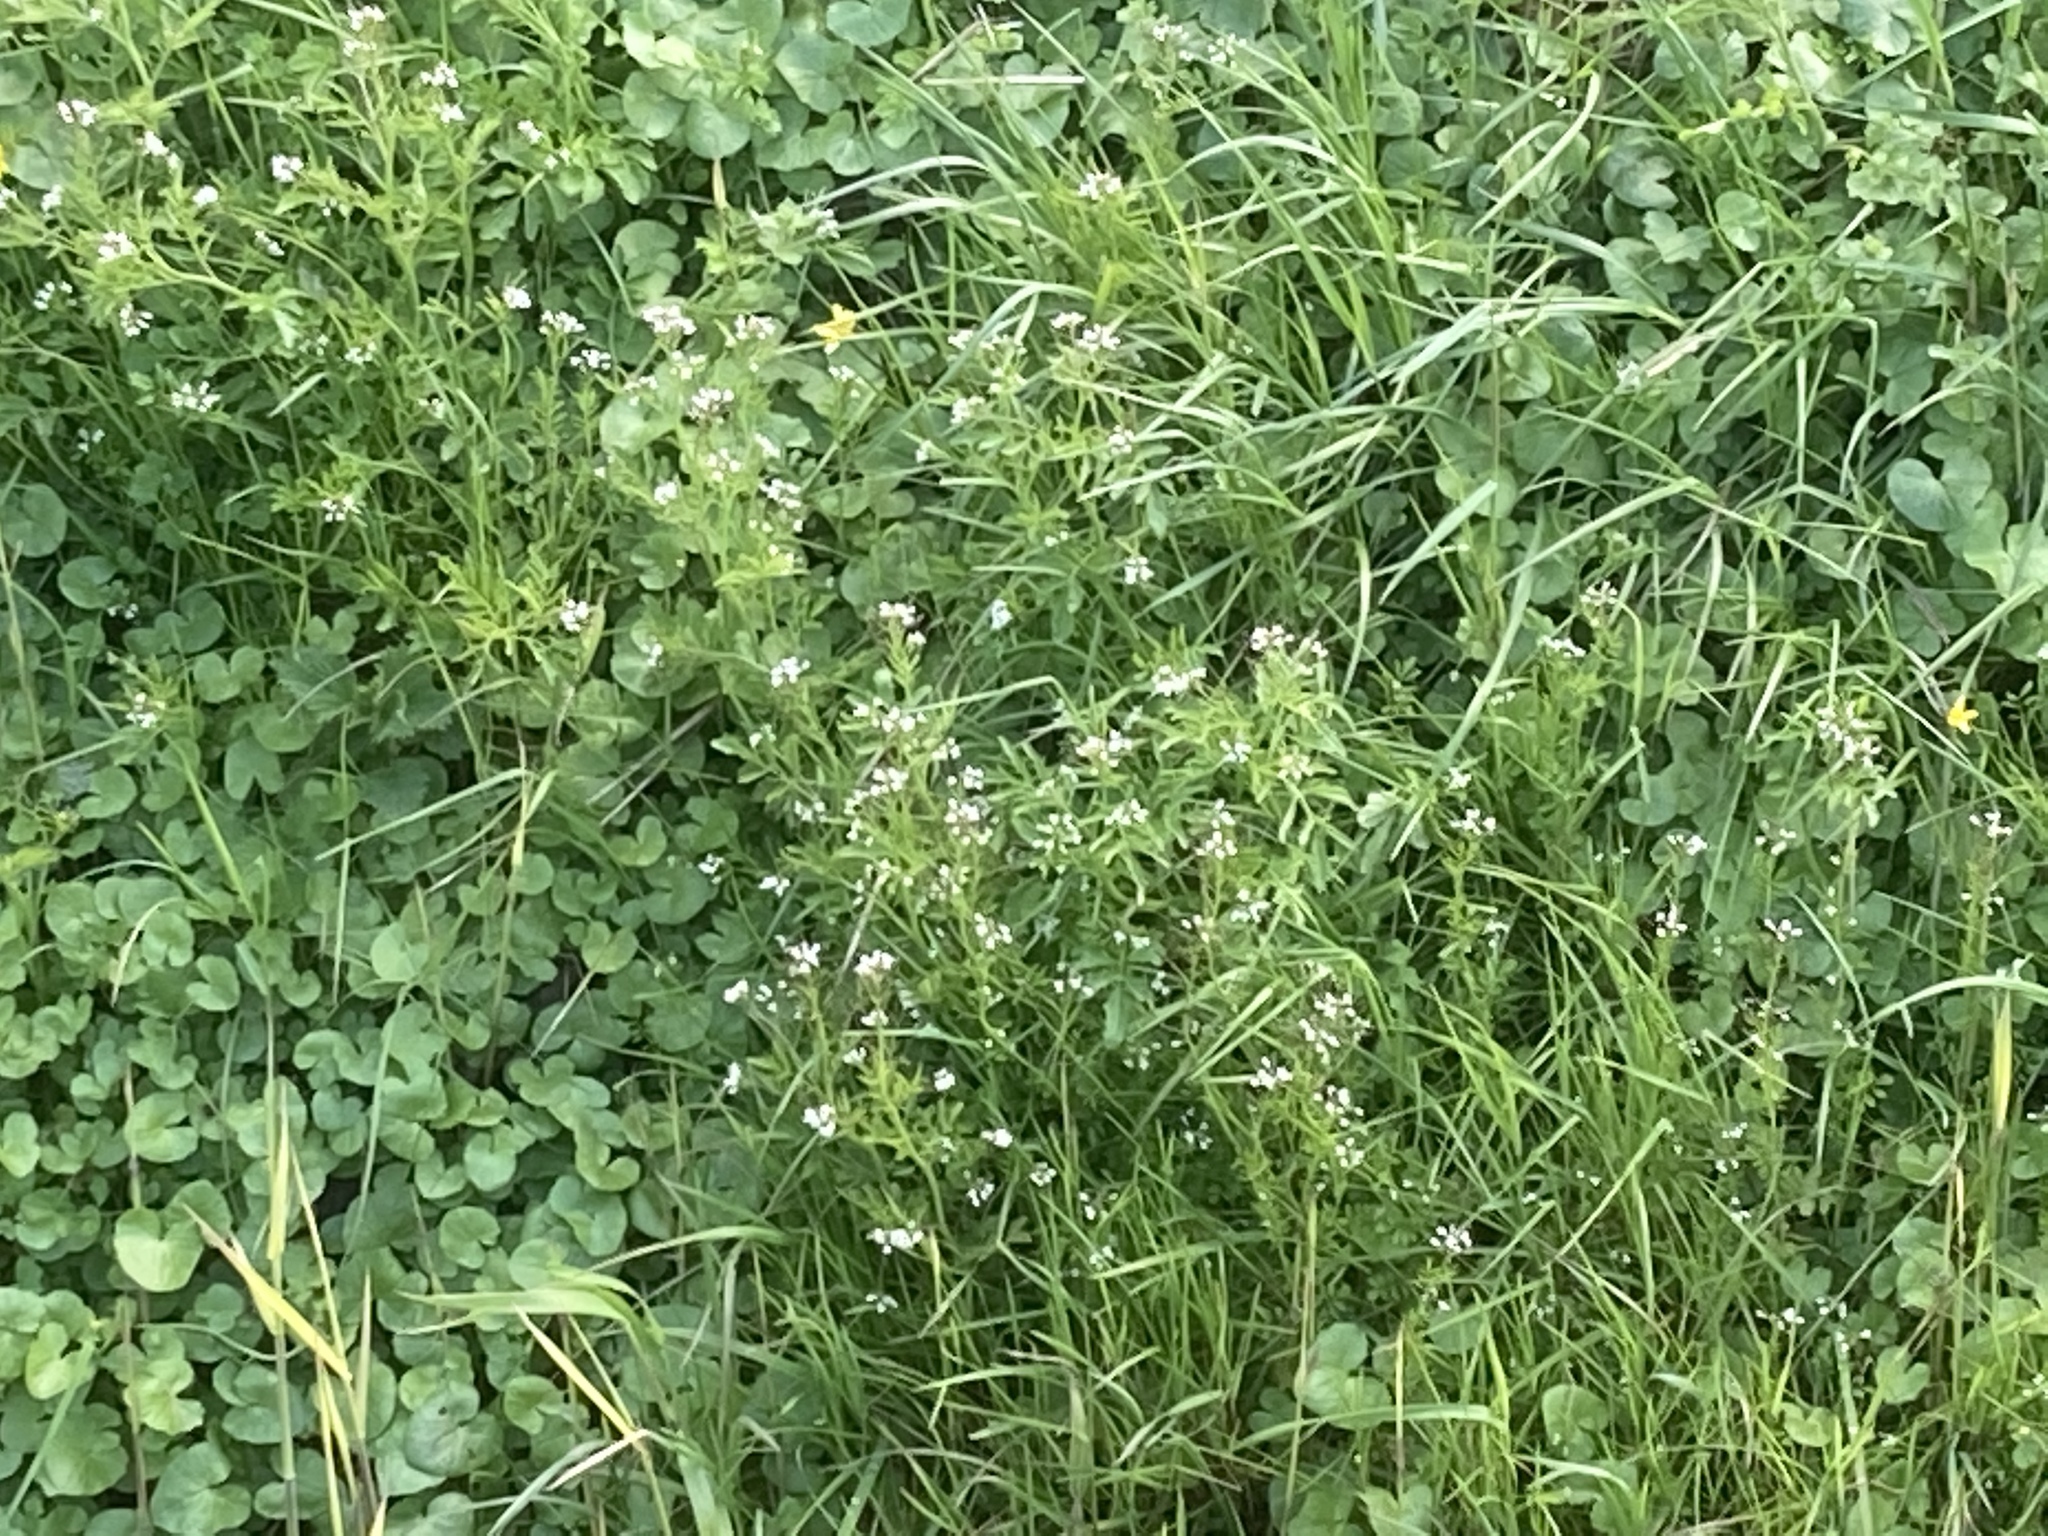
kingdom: Plantae
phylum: Tracheophyta
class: Magnoliopsida
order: Brassicales
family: Brassicaceae
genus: Cardamine
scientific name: Cardamine flexuosa
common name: Woodland bittercress
